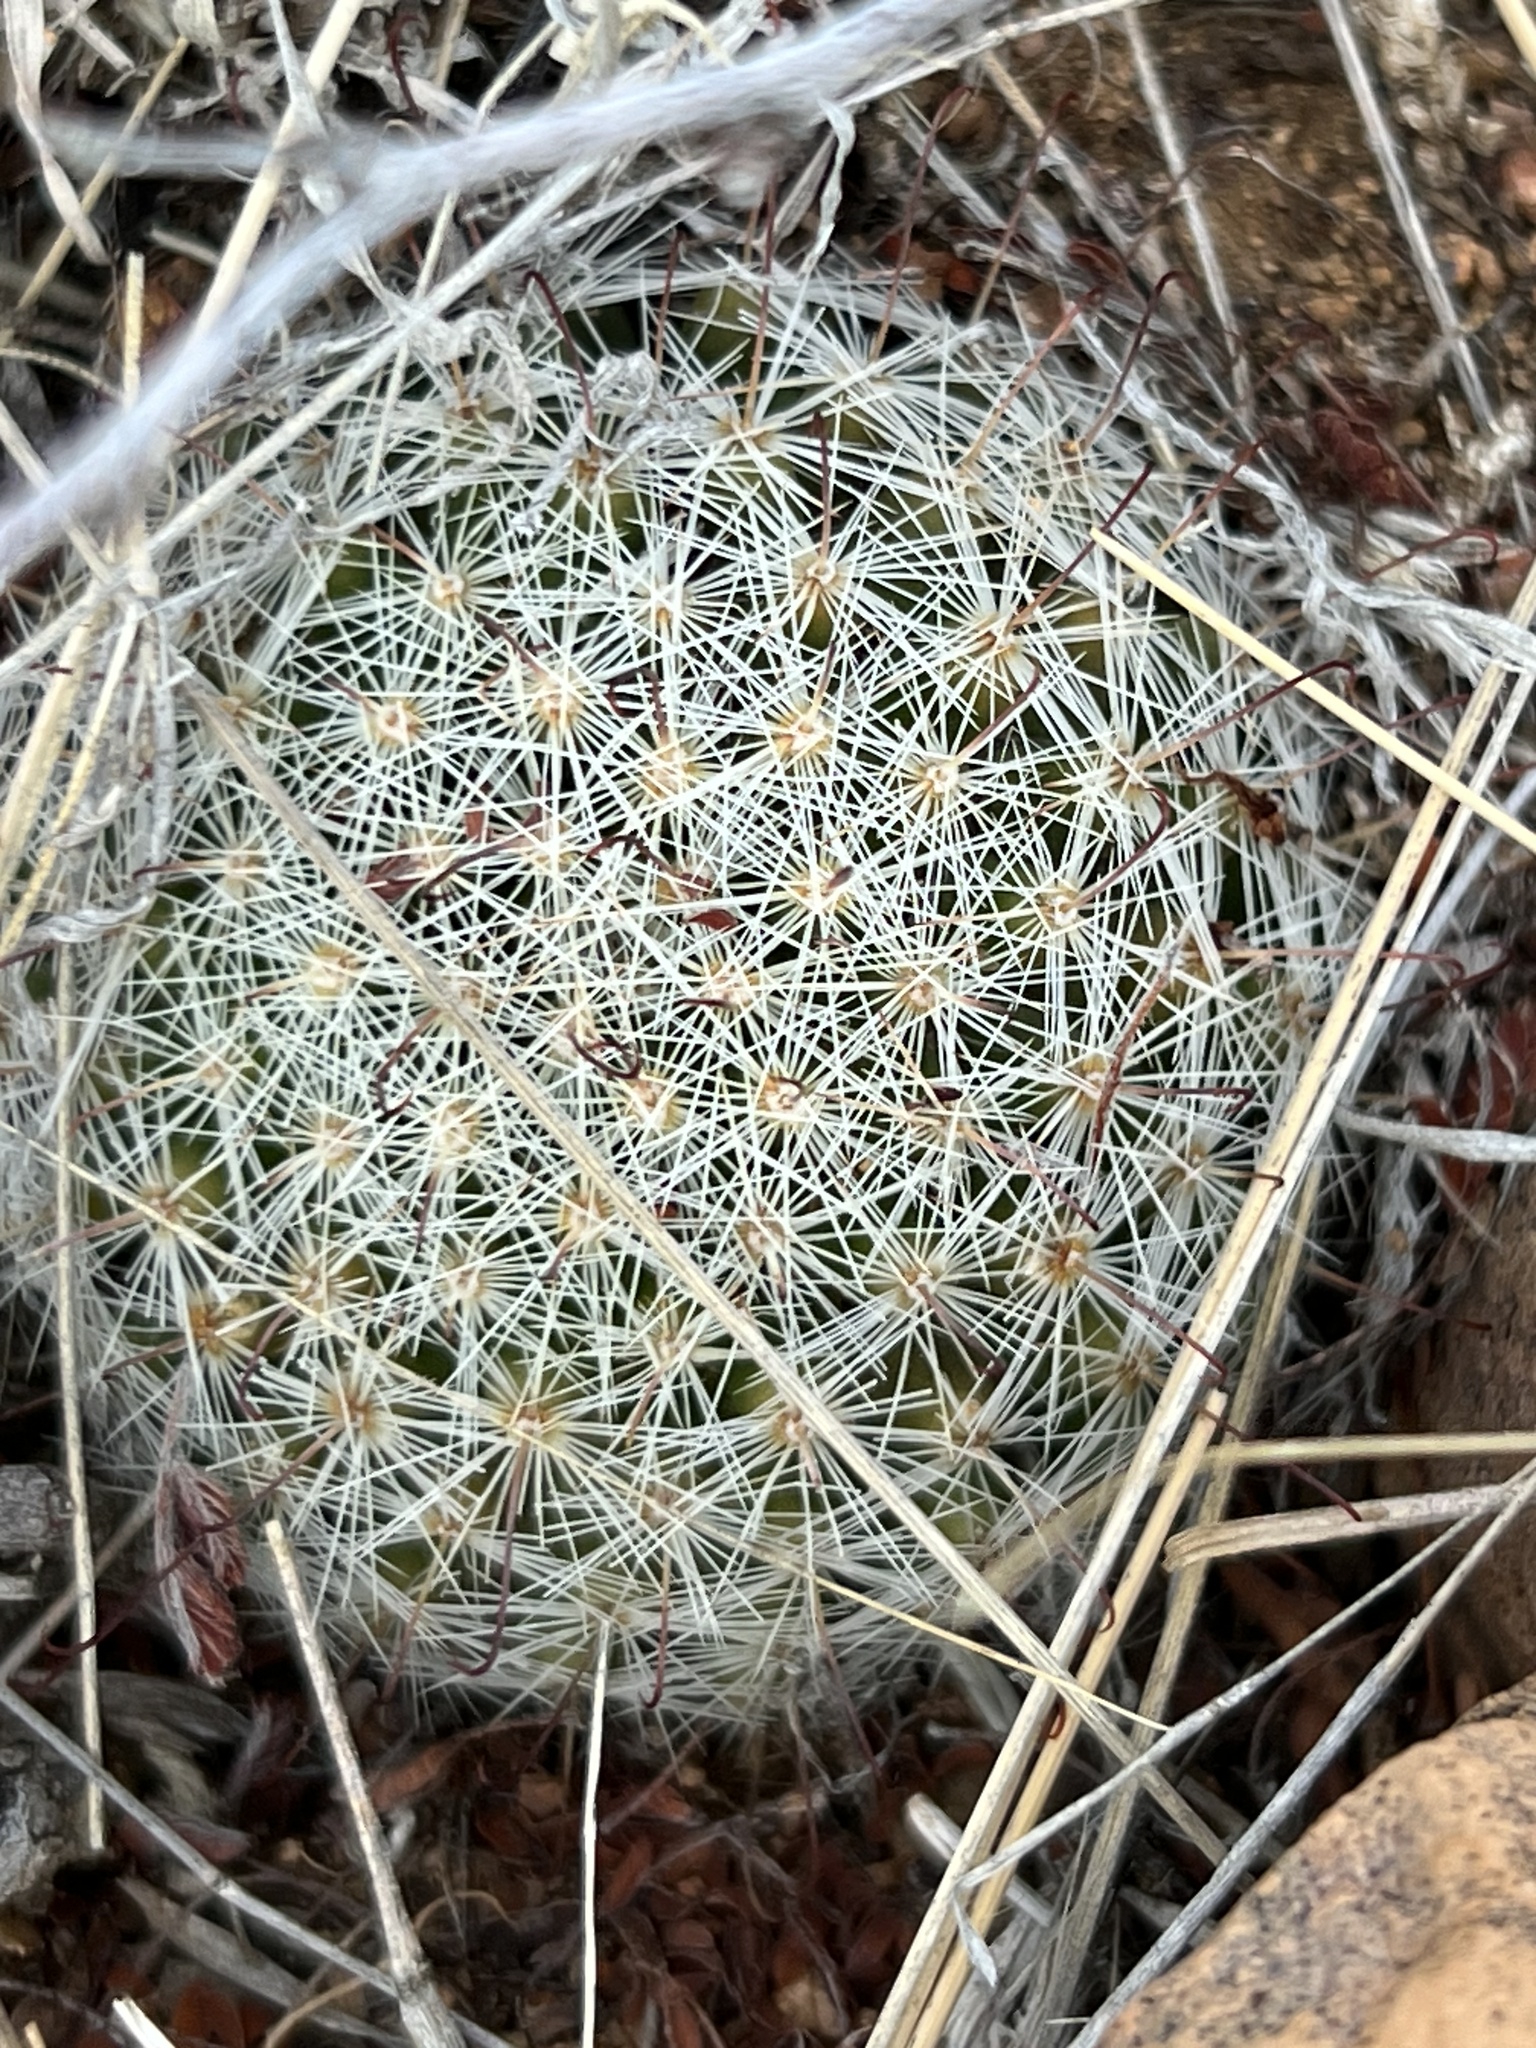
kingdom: Plantae
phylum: Tracheophyta
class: Magnoliopsida
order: Caryophyllales
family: Cactaceae
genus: Cochemiea
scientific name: Cochemiea grahamii
